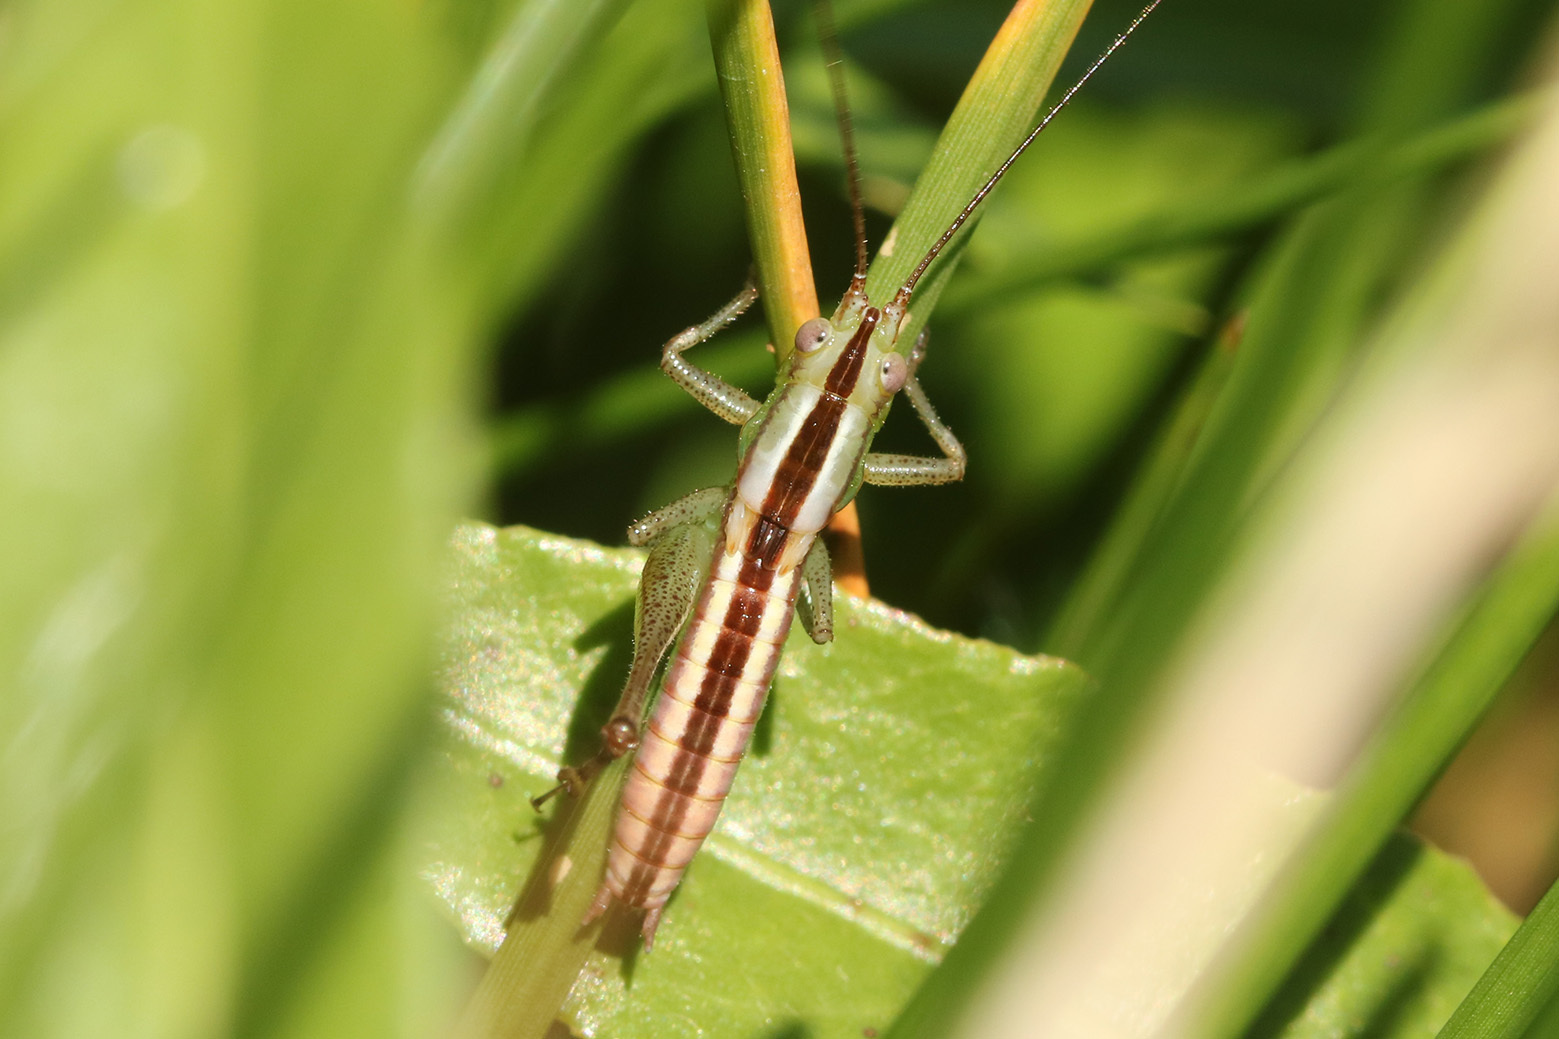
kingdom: Animalia
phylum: Arthropoda
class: Insecta
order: Orthoptera
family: Tettigoniidae
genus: Conocephalus
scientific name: Conocephalus doryphorus
